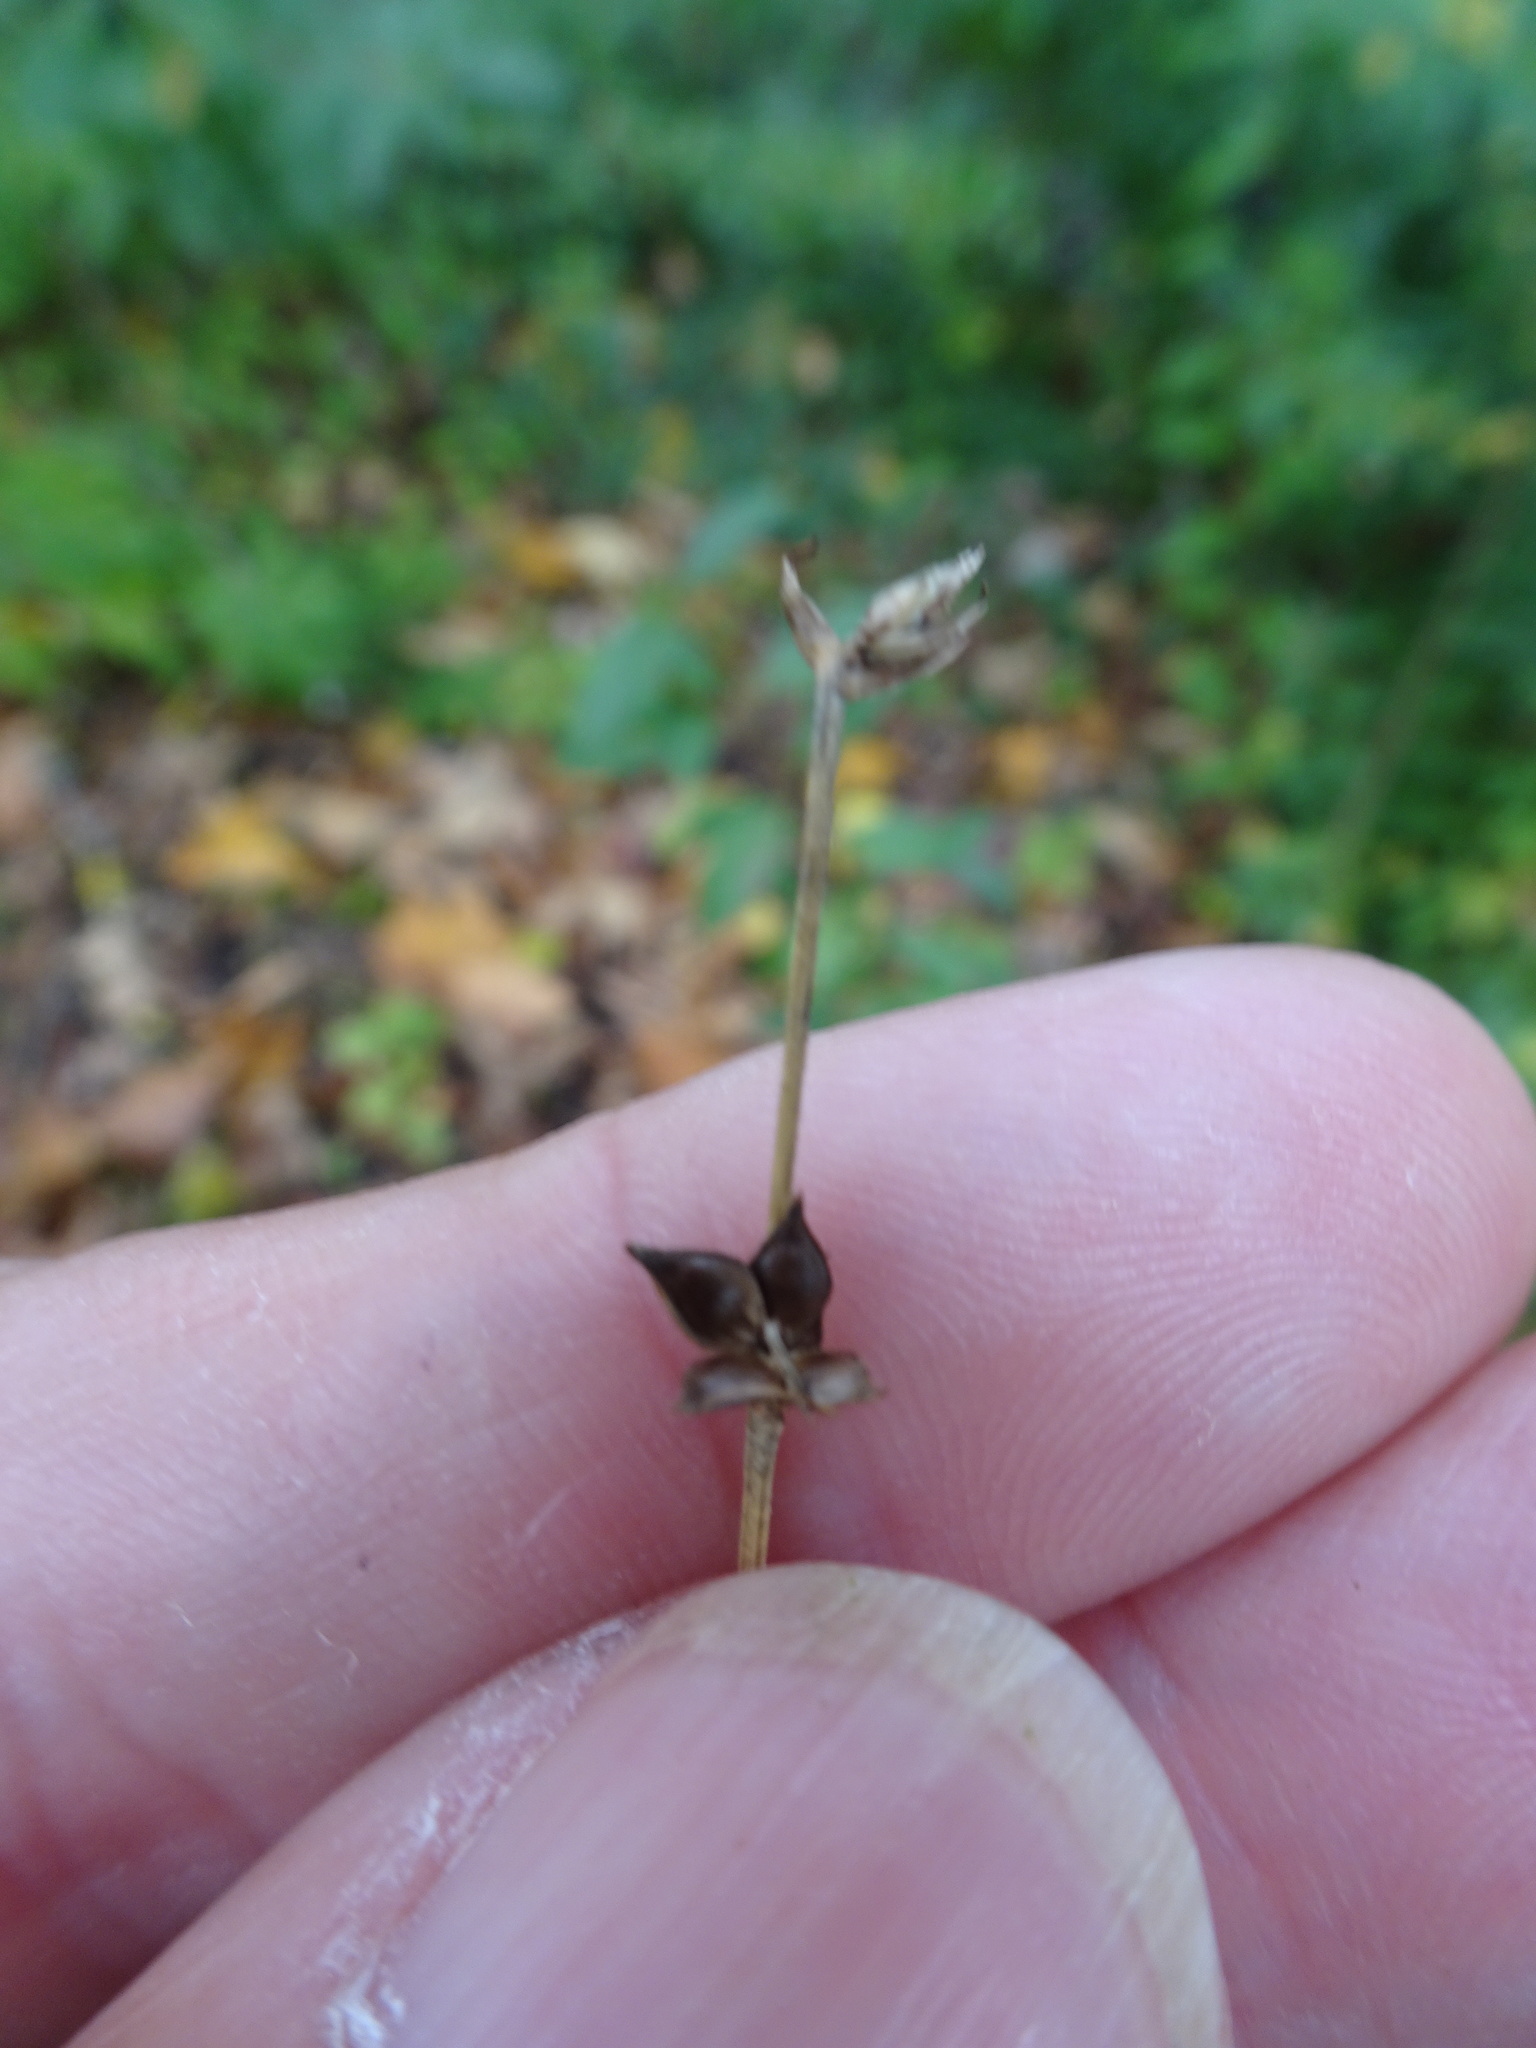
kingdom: Plantae
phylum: Tracheophyta
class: Liliopsida
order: Poales
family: Cyperaceae
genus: Carex
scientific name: Carex spicata
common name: Spiked sedge
